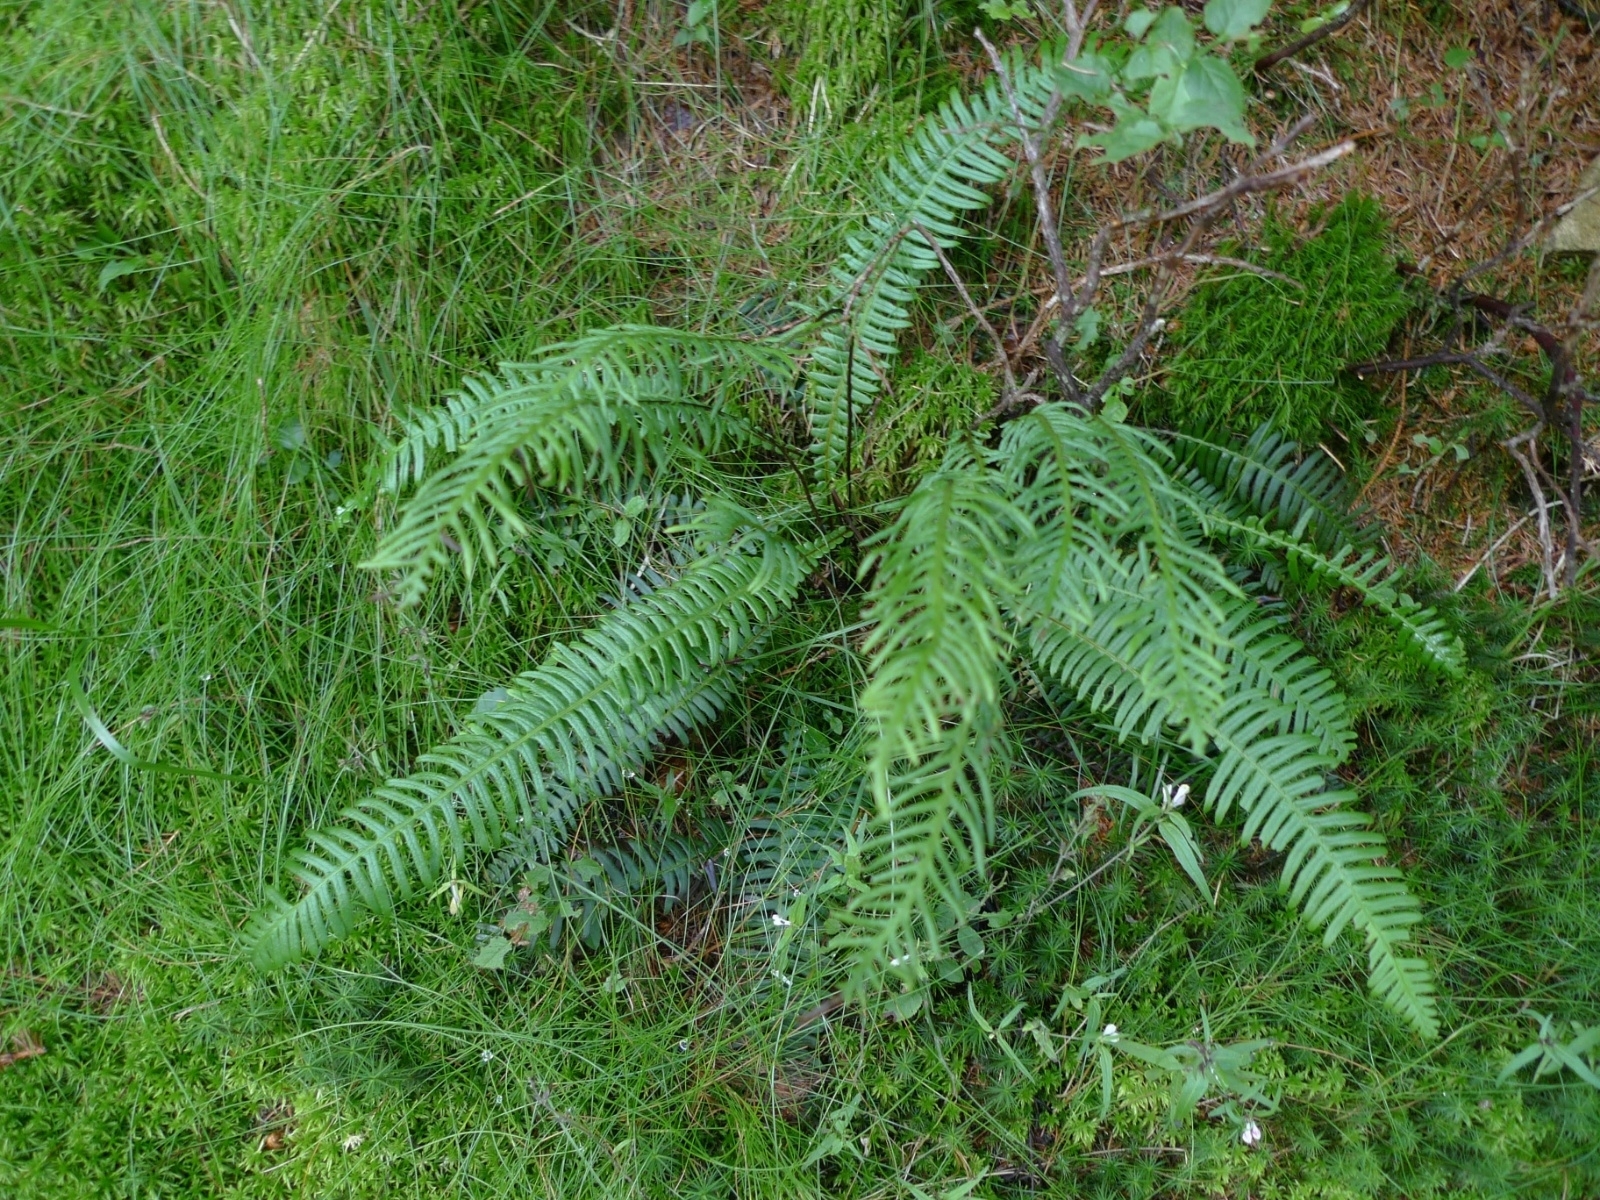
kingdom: Plantae
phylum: Tracheophyta
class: Polypodiopsida
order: Polypodiales
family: Blechnaceae
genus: Struthiopteris
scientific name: Struthiopteris spicant
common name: Deer fern
